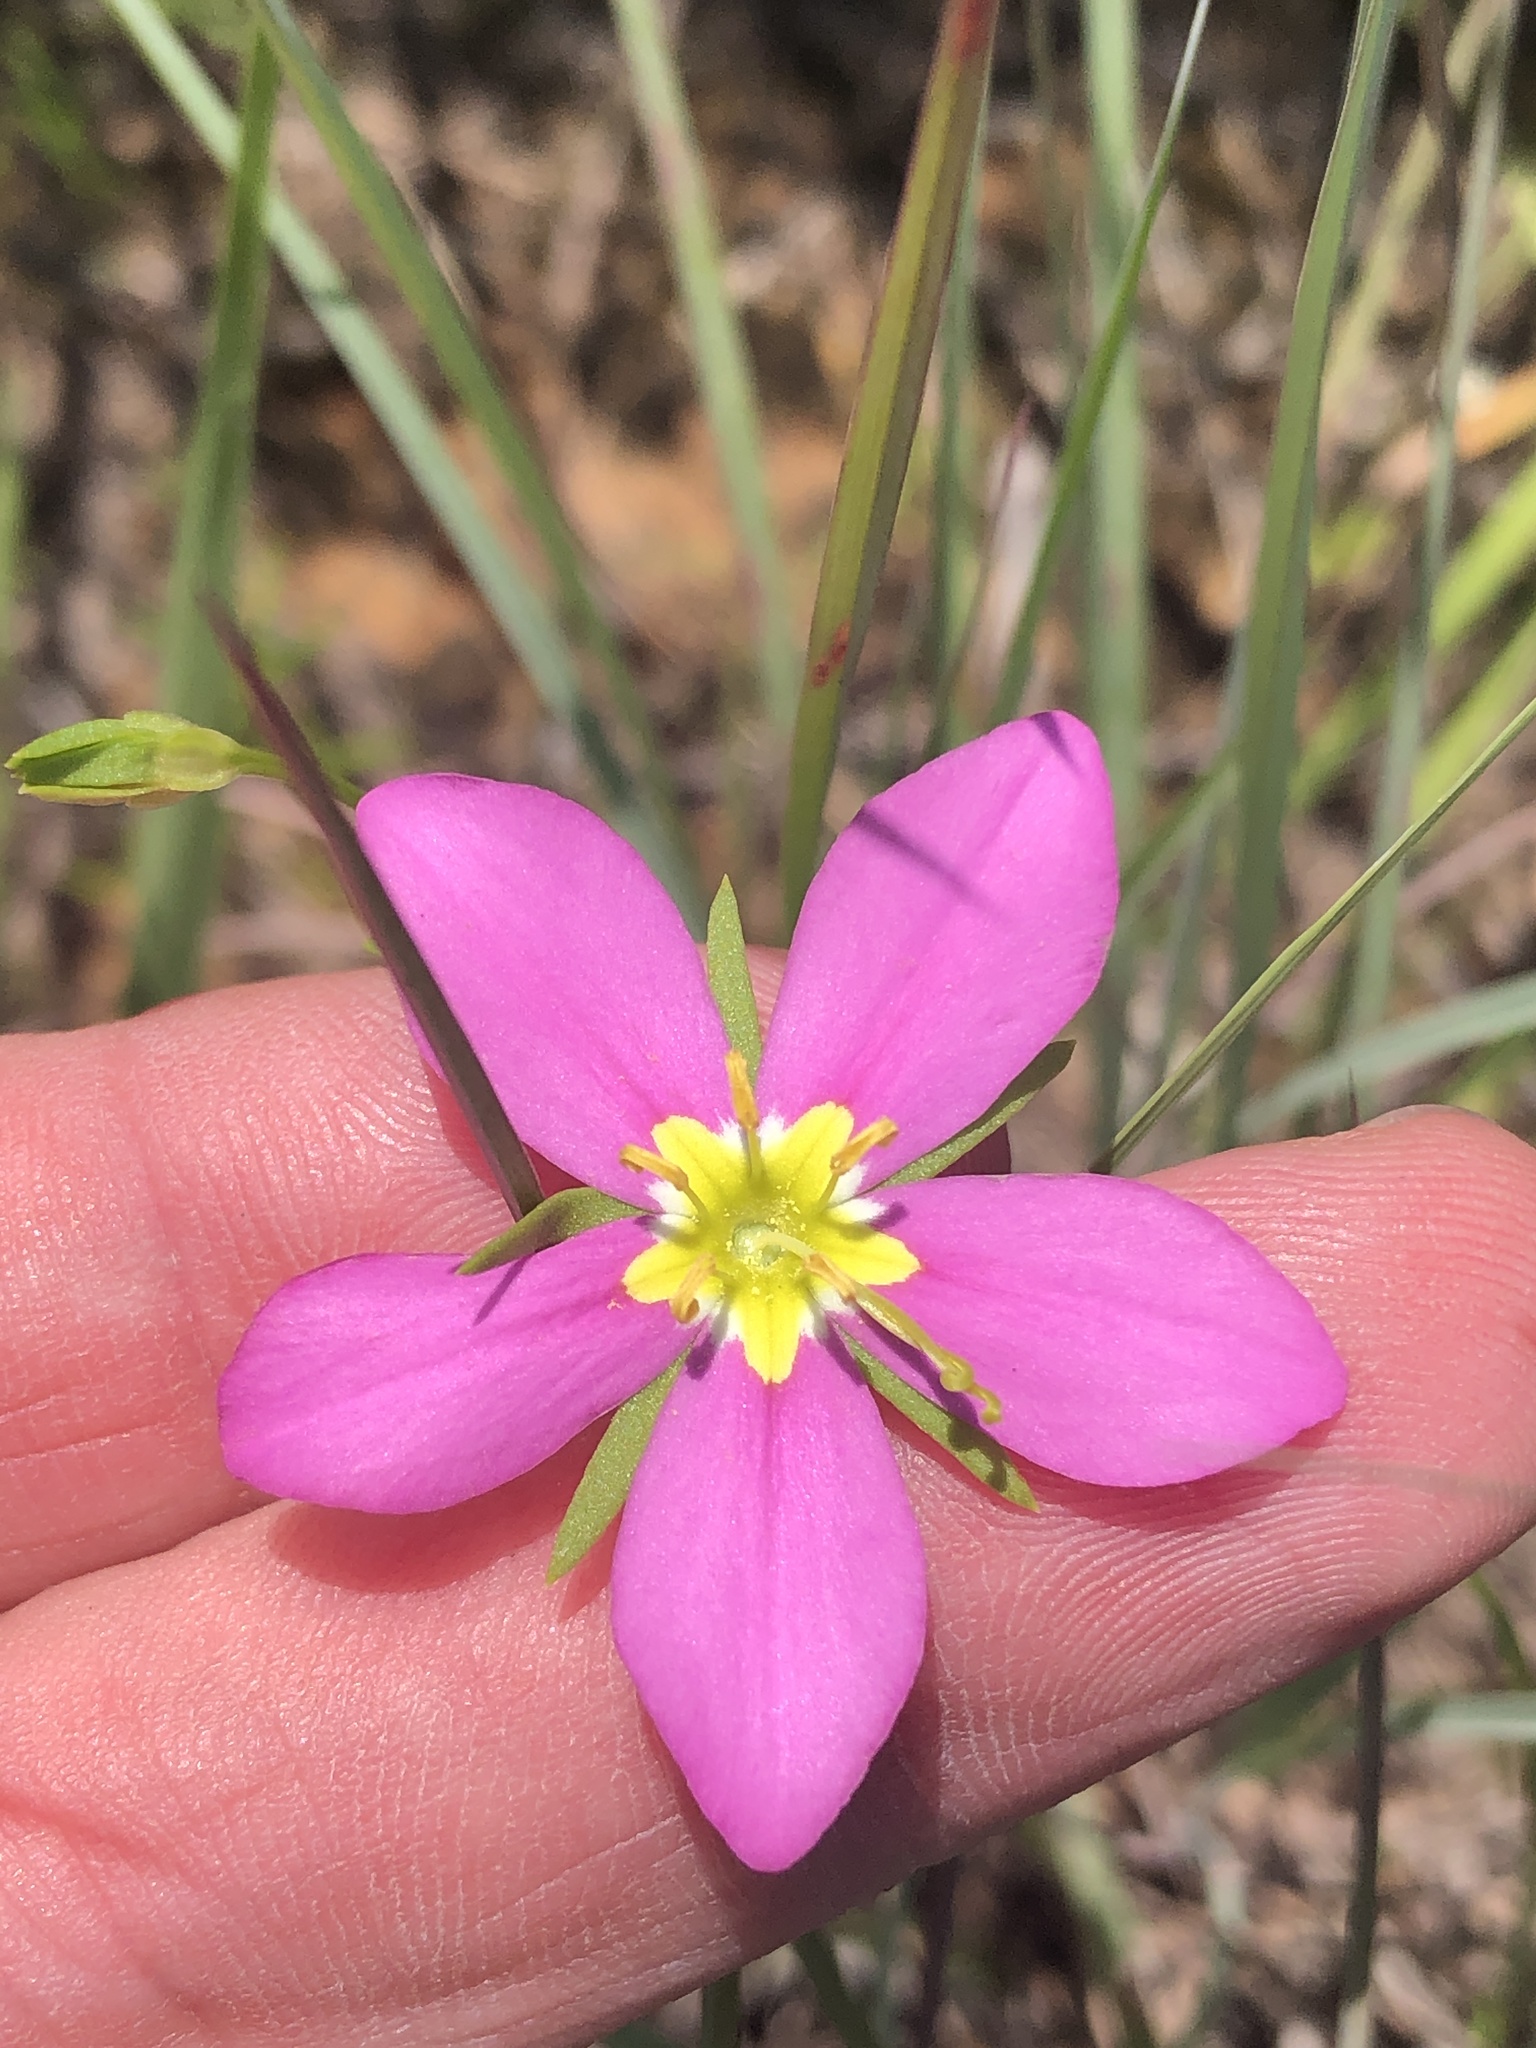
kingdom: Plantae
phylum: Tracheophyta
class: Magnoliopsida
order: Gentianales
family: Gentianaceae
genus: Sabatia
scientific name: Sabatia campestris
